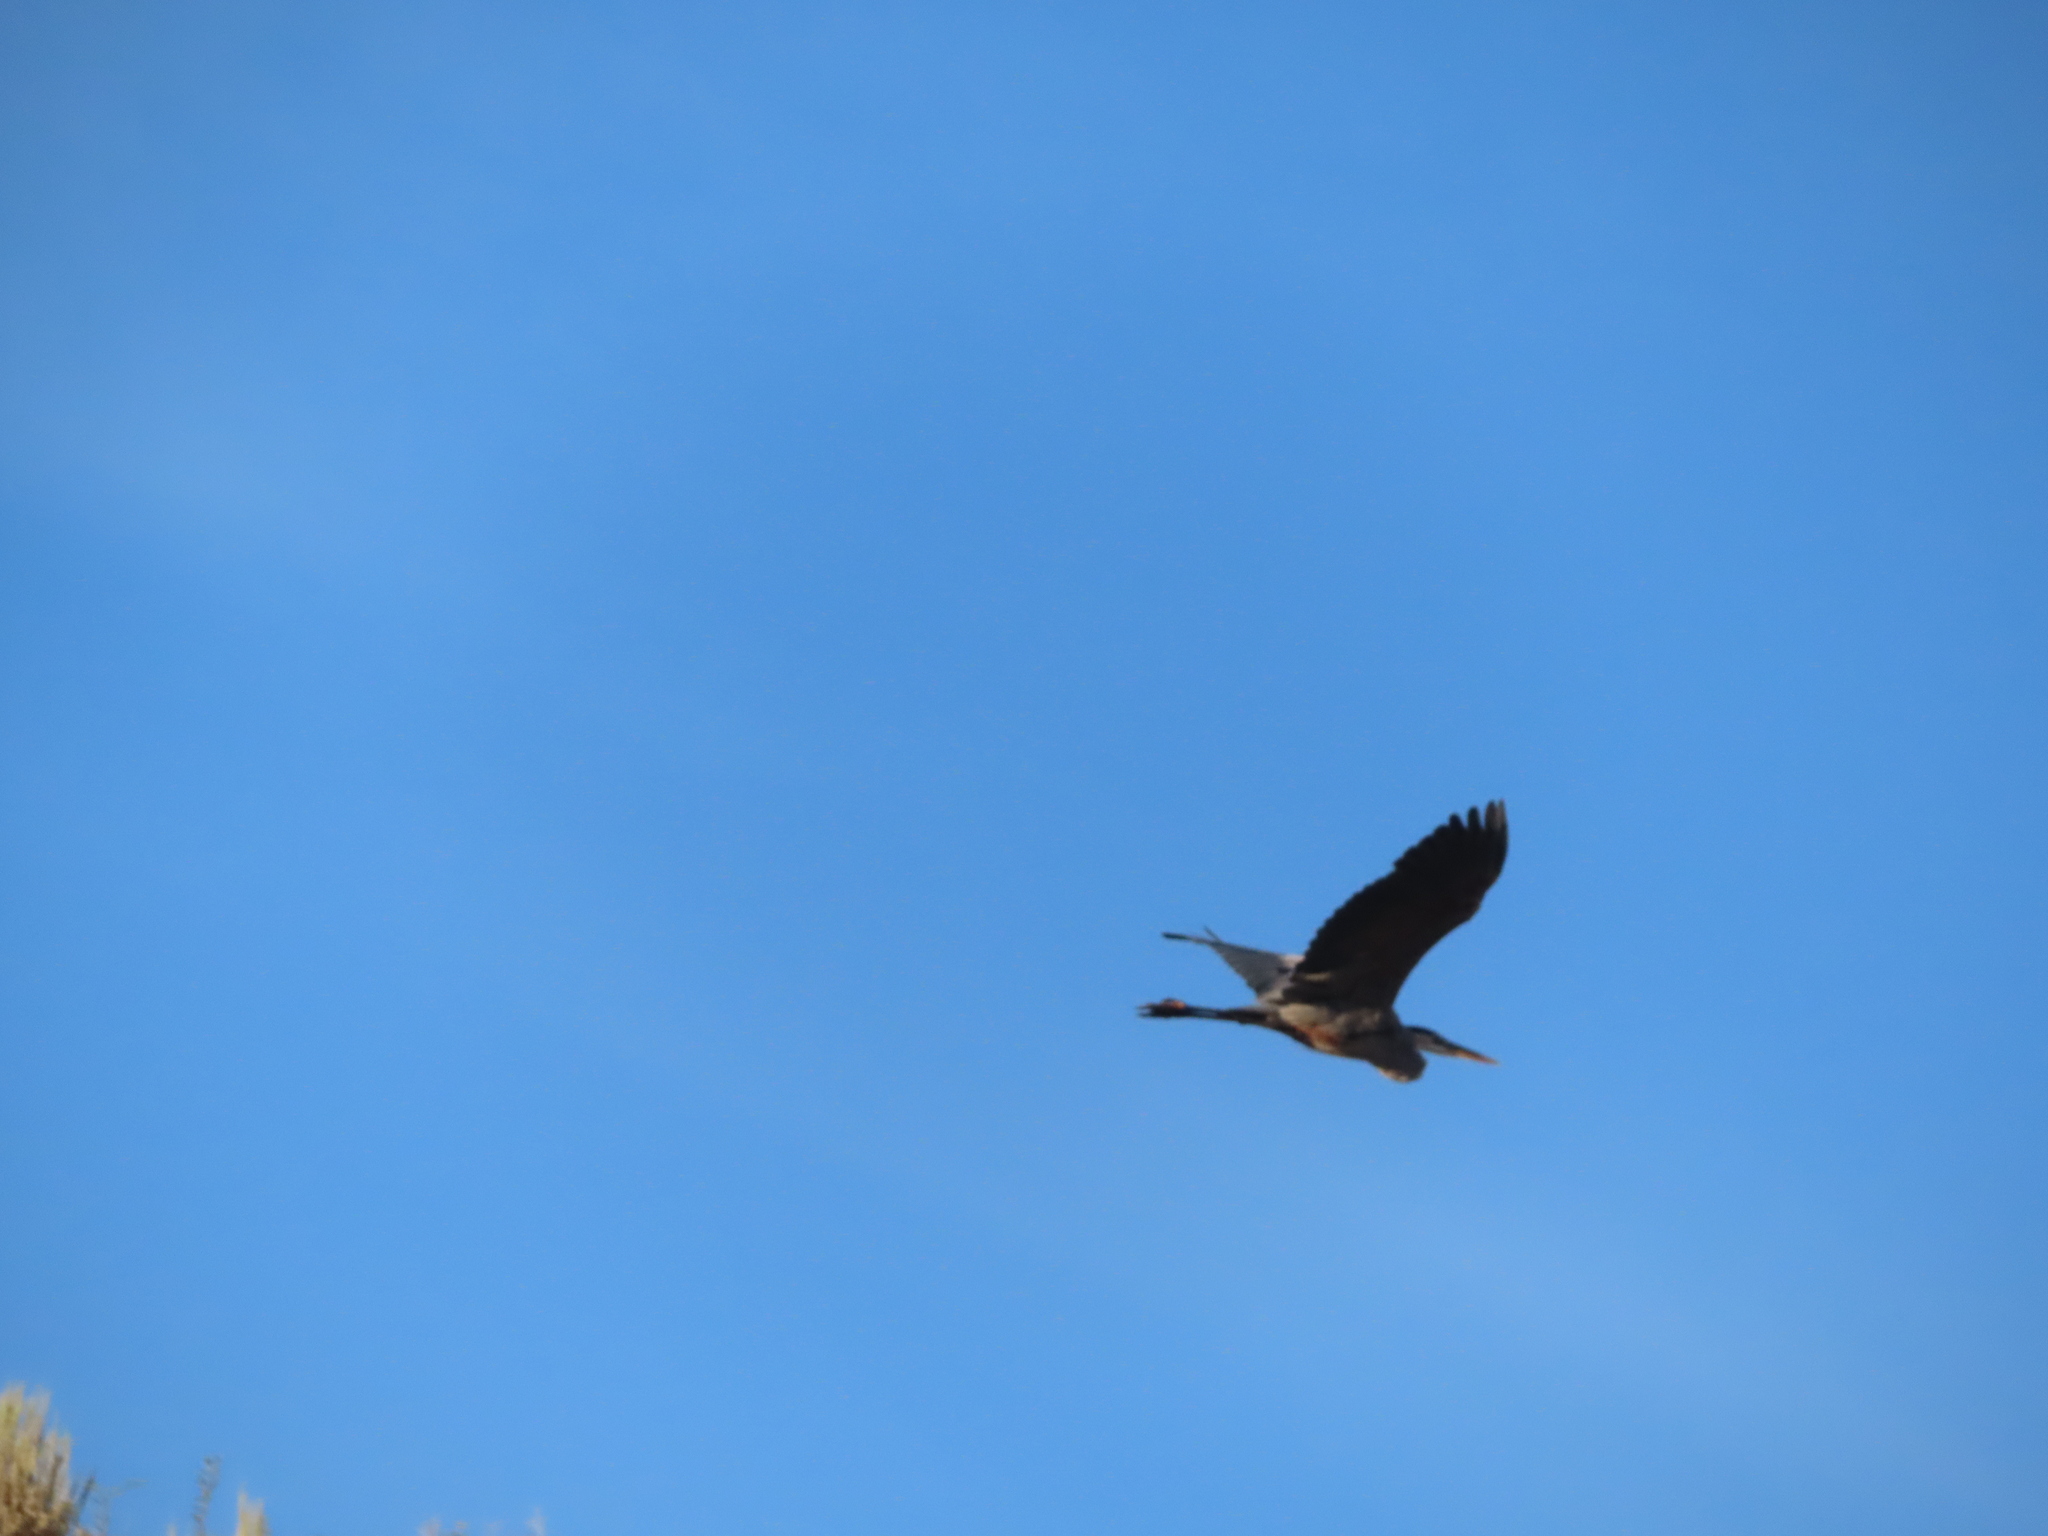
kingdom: Animalia
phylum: Chordata
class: Aves
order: Pelecaniformes
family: Ardeidae
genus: Ardea
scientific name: Ardea herodias
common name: Great blue heron
